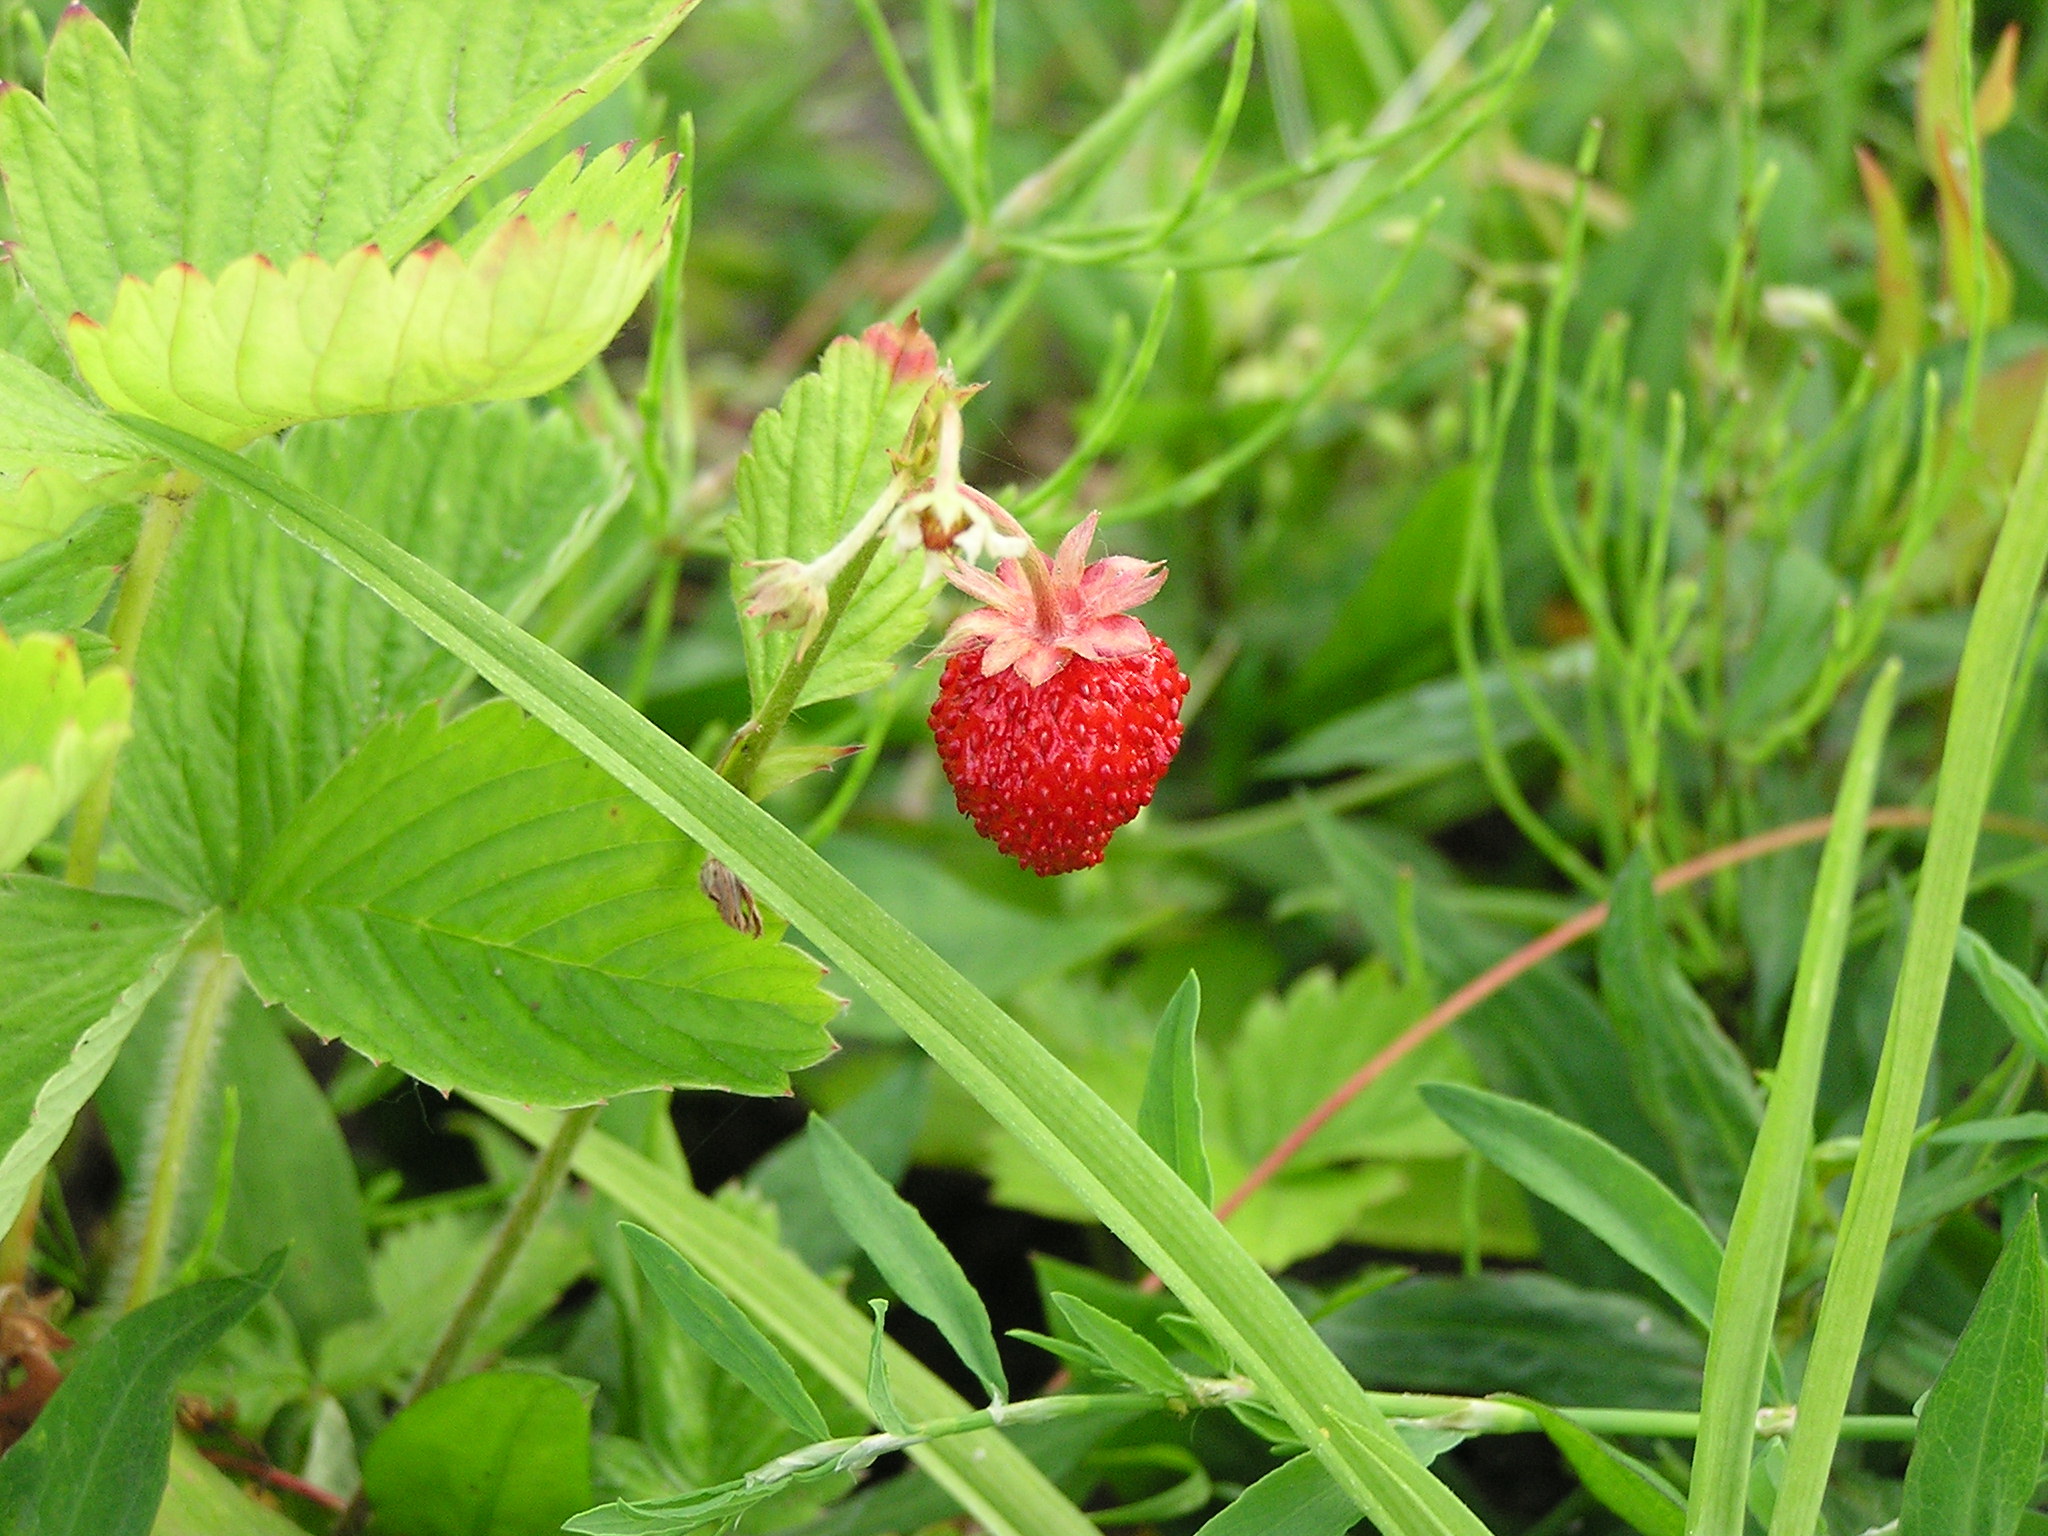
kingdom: Plantae
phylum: Tracheophyta
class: Magnoliopsida
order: Rosales
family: Rosaceae
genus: Fragaria
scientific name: Fragaria vesca
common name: Wild strawberry
